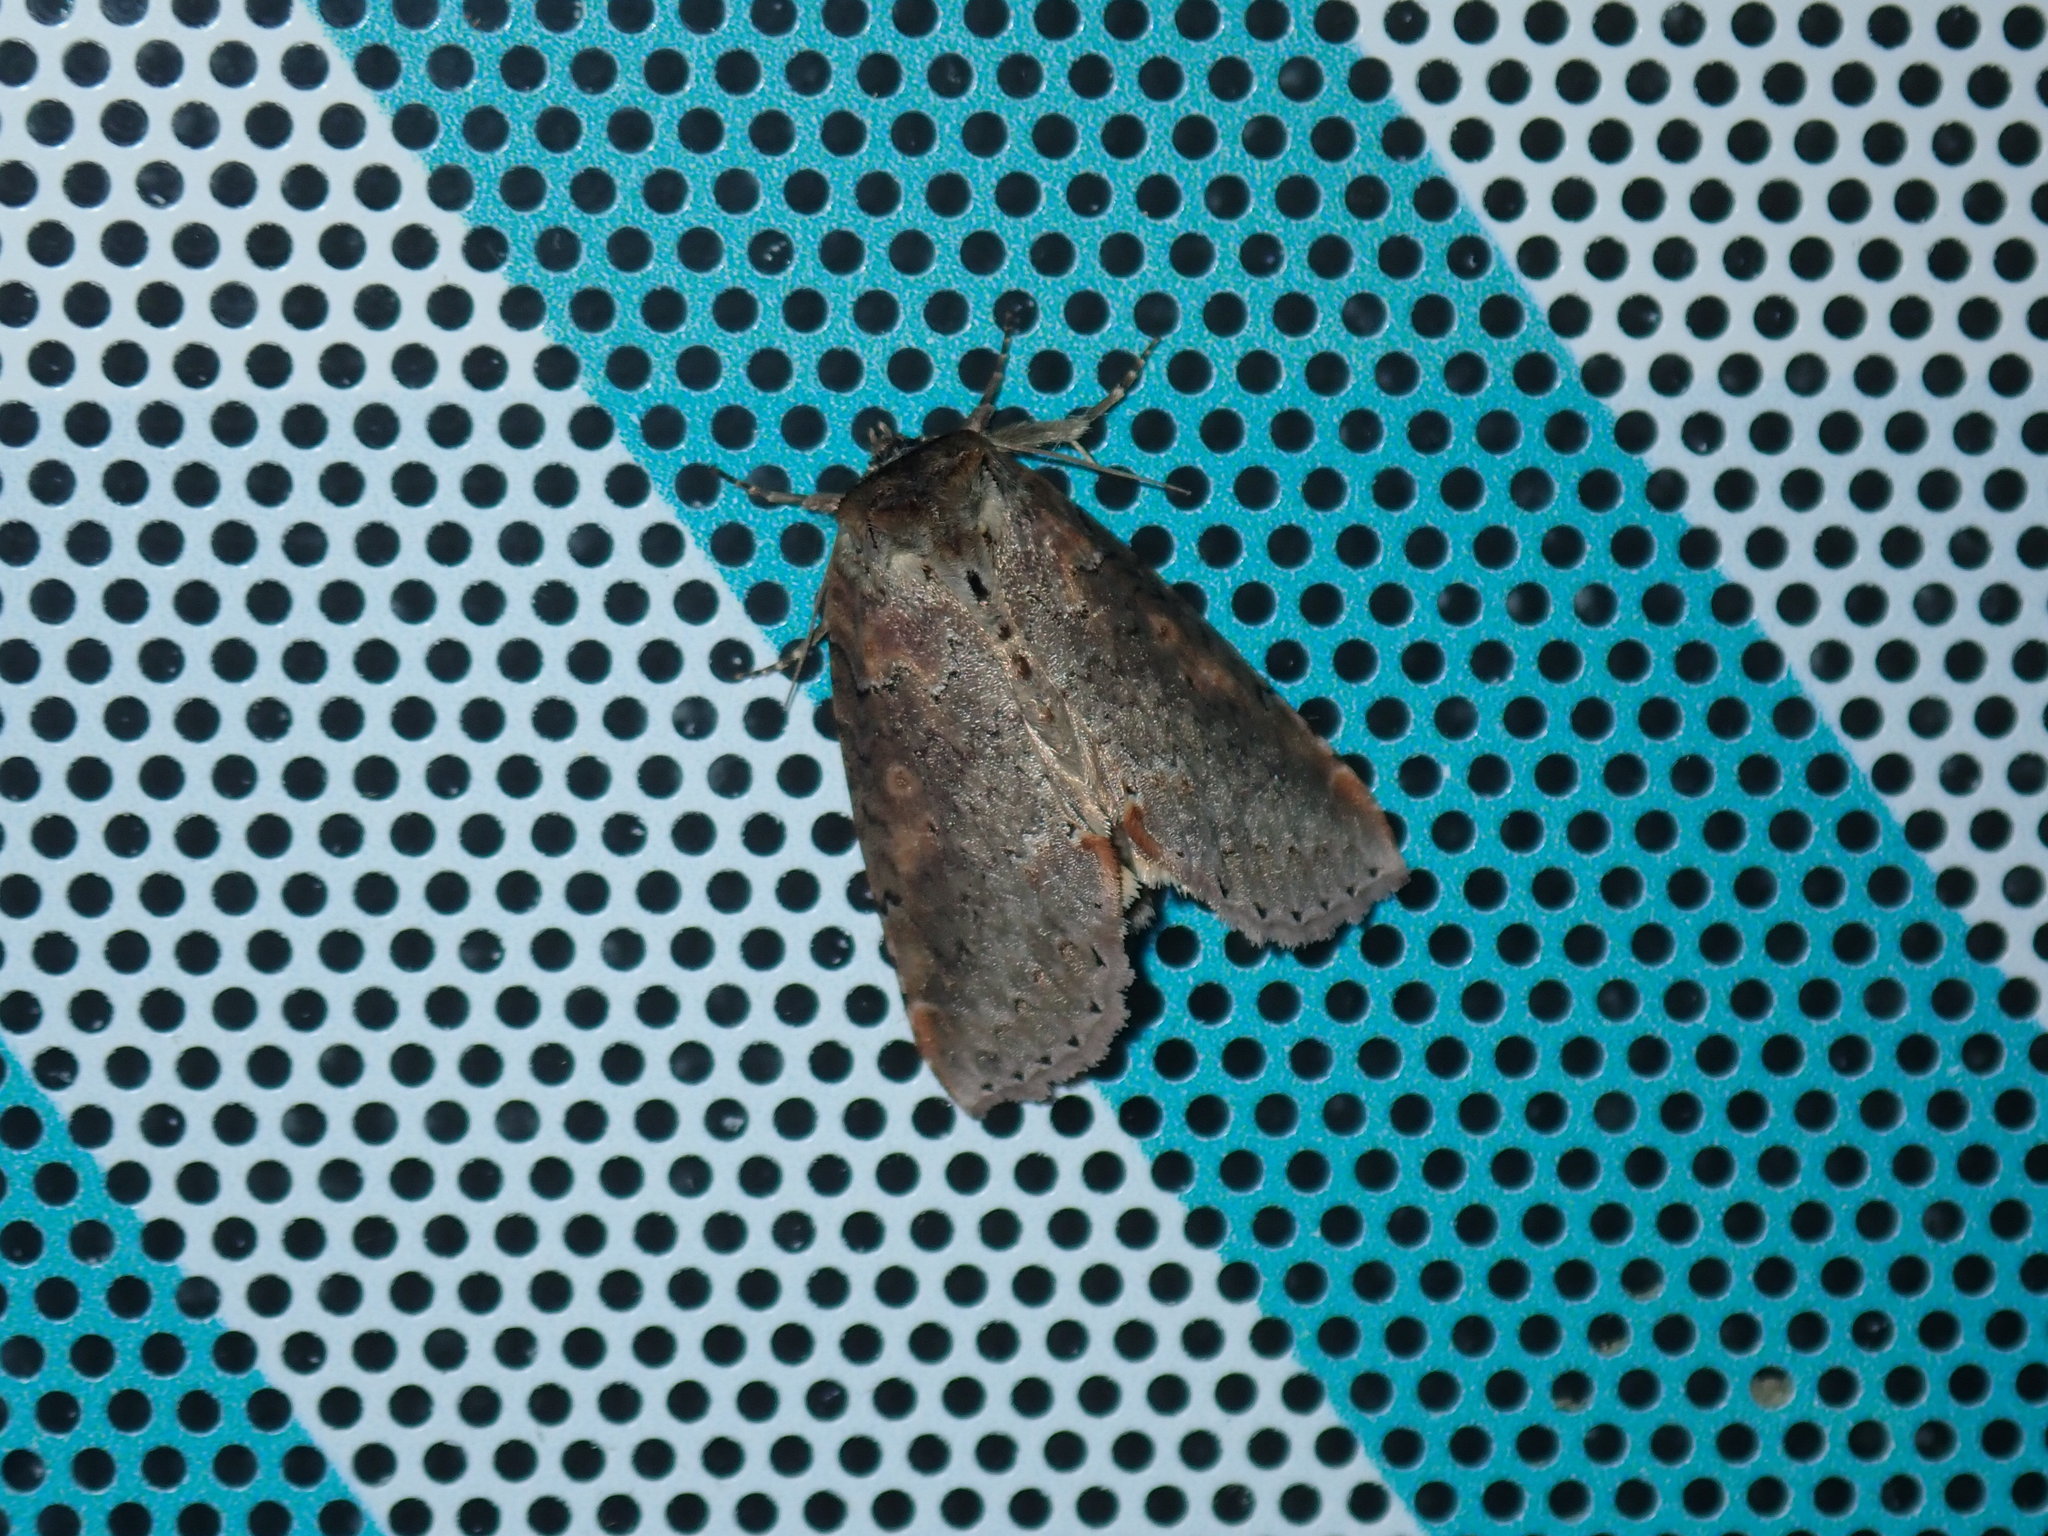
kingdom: Animalia
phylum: Arthropoda
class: Insecta
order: Lepidoptera
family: Drepanidae
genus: Pseudothyatira
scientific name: Pseudothyatira cymatophoroides
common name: Tufted thyatirid moth
